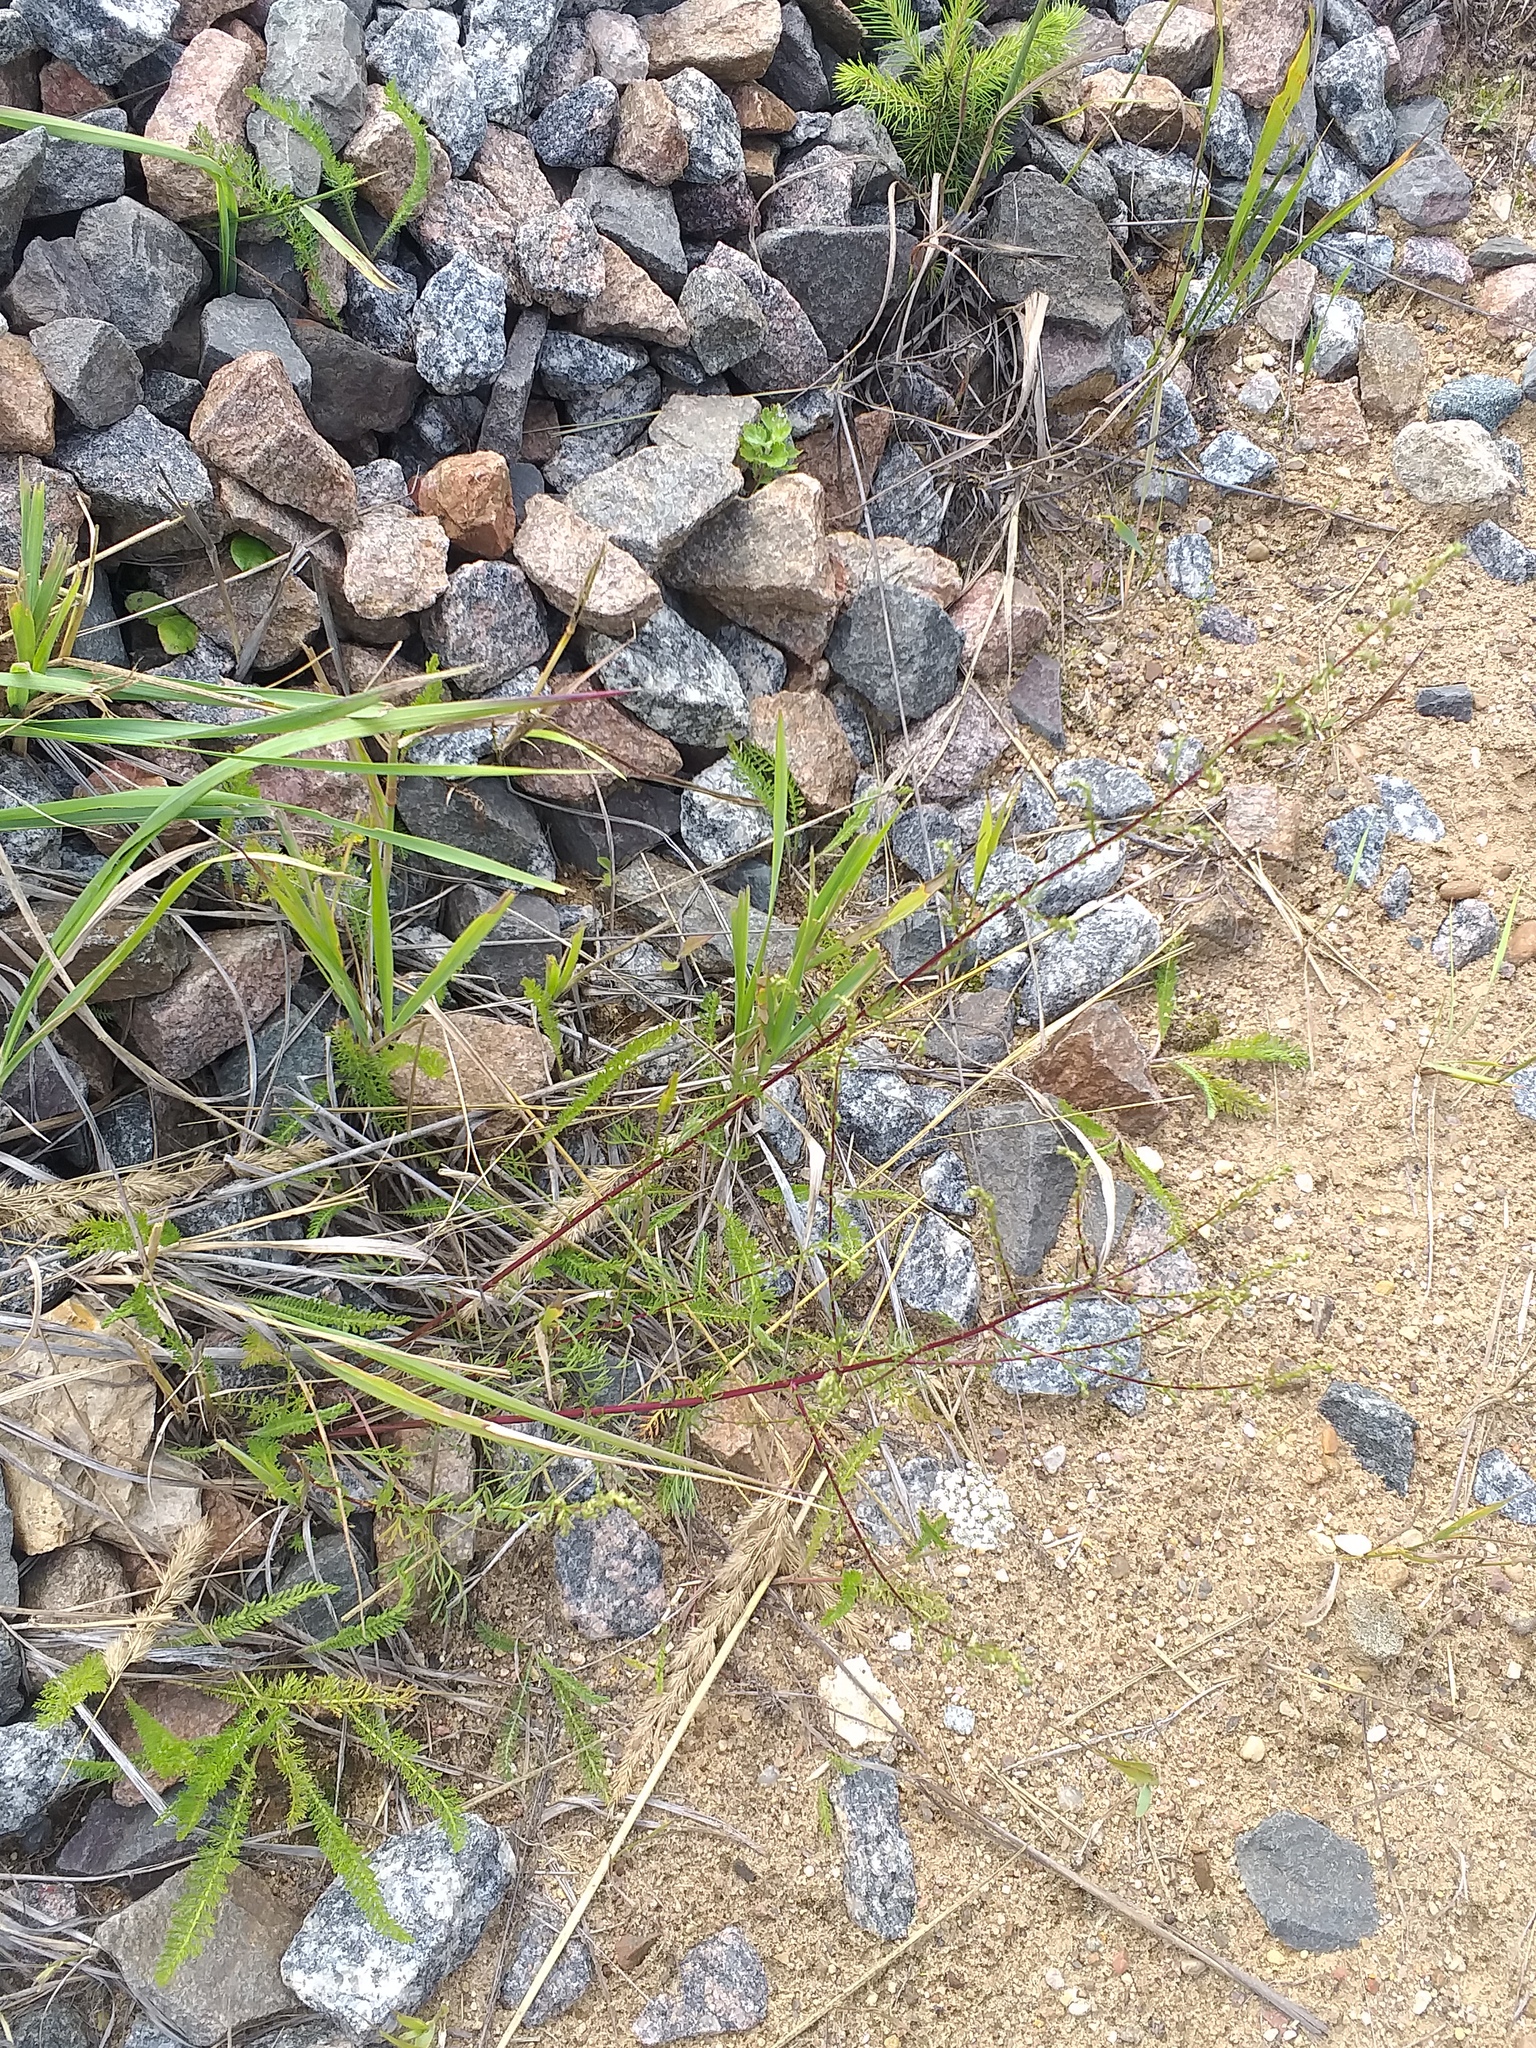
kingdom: Plantae
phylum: Tracheophyta
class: Magnoliopsida
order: Asterales
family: Asteraceae
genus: Artemisia
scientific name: Artemisia campestris
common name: Field wormwood
